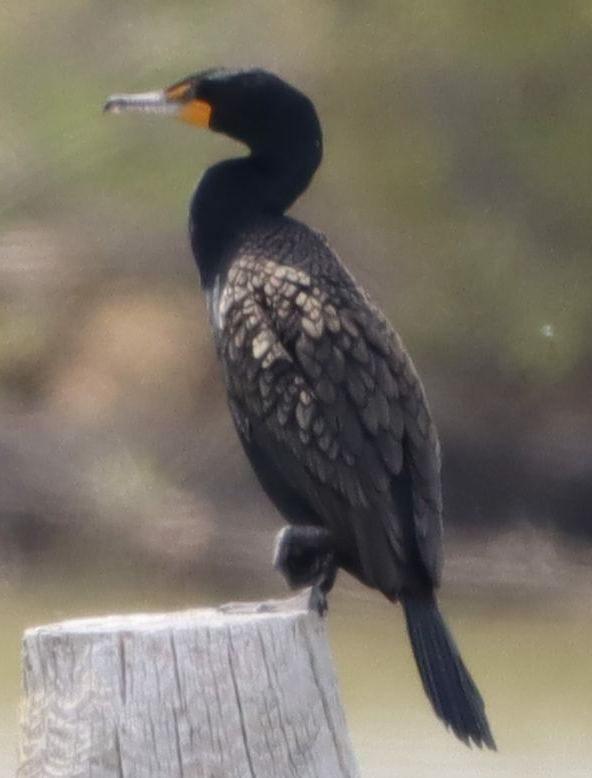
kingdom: Animalia
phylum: Chordata
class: Aves
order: Suliformes
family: Phalacrocoracidae
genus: Phalacrocorax
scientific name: Phalacrocorax auritus
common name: Double-crested cormorant
